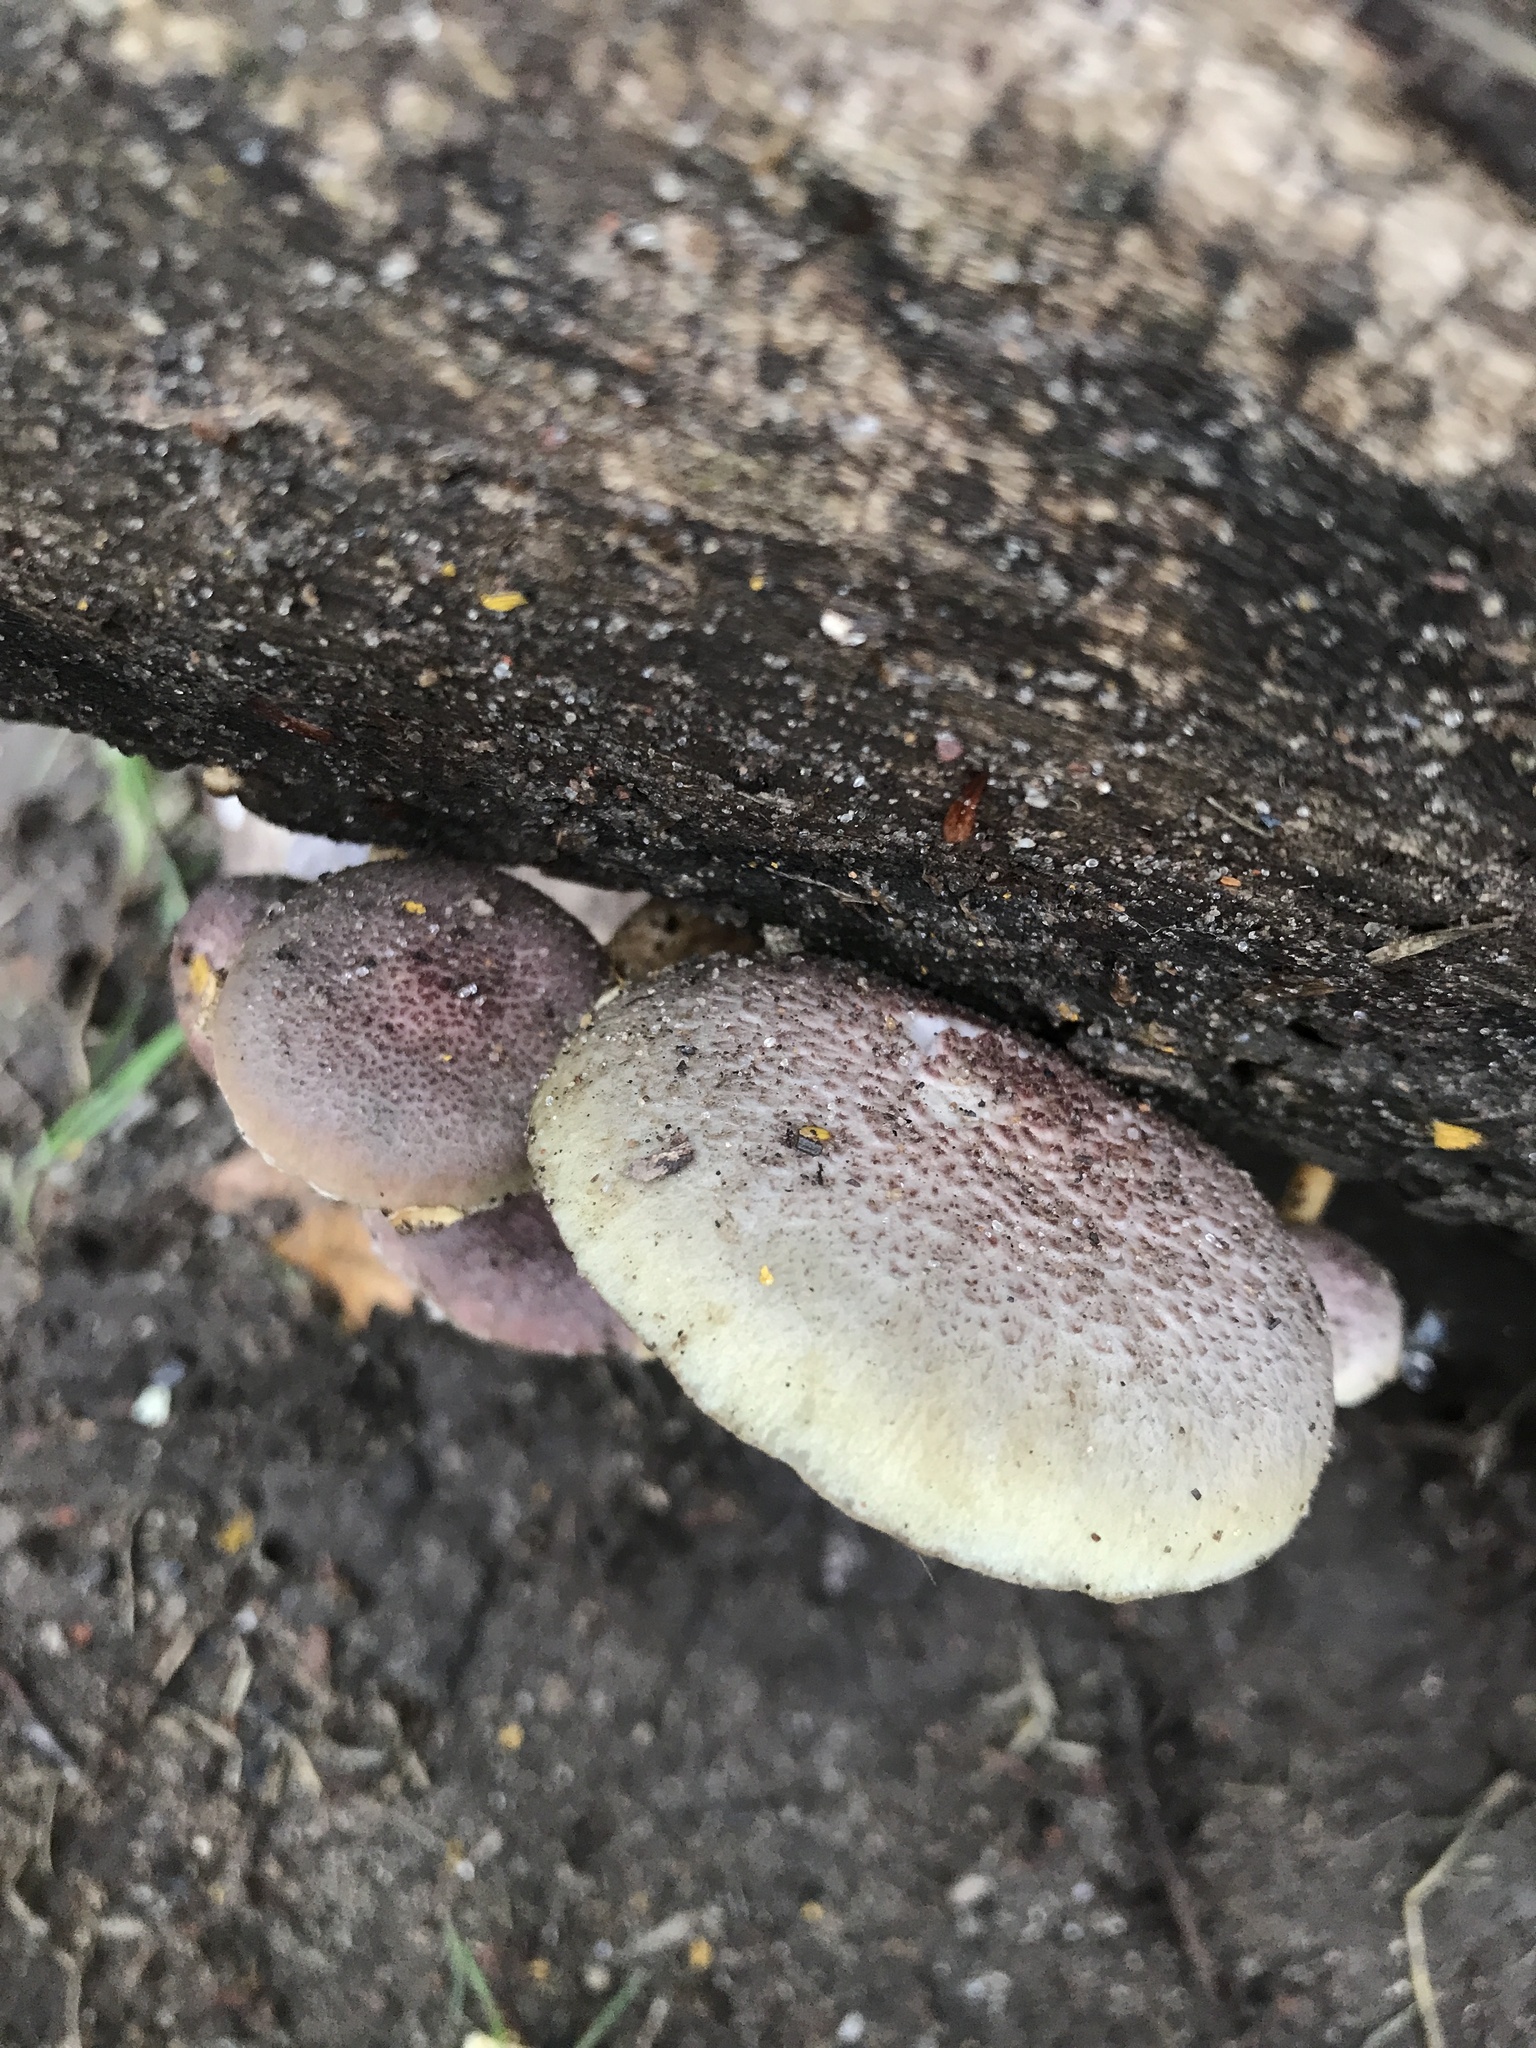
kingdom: Fungi
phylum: Basidiomycota
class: Agaricomycetes
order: Agaricales
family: Hymenogastraceae
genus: Gymnopilus
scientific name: Gymnopilus luteofolius
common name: Yellow-gilled gymnopilus
